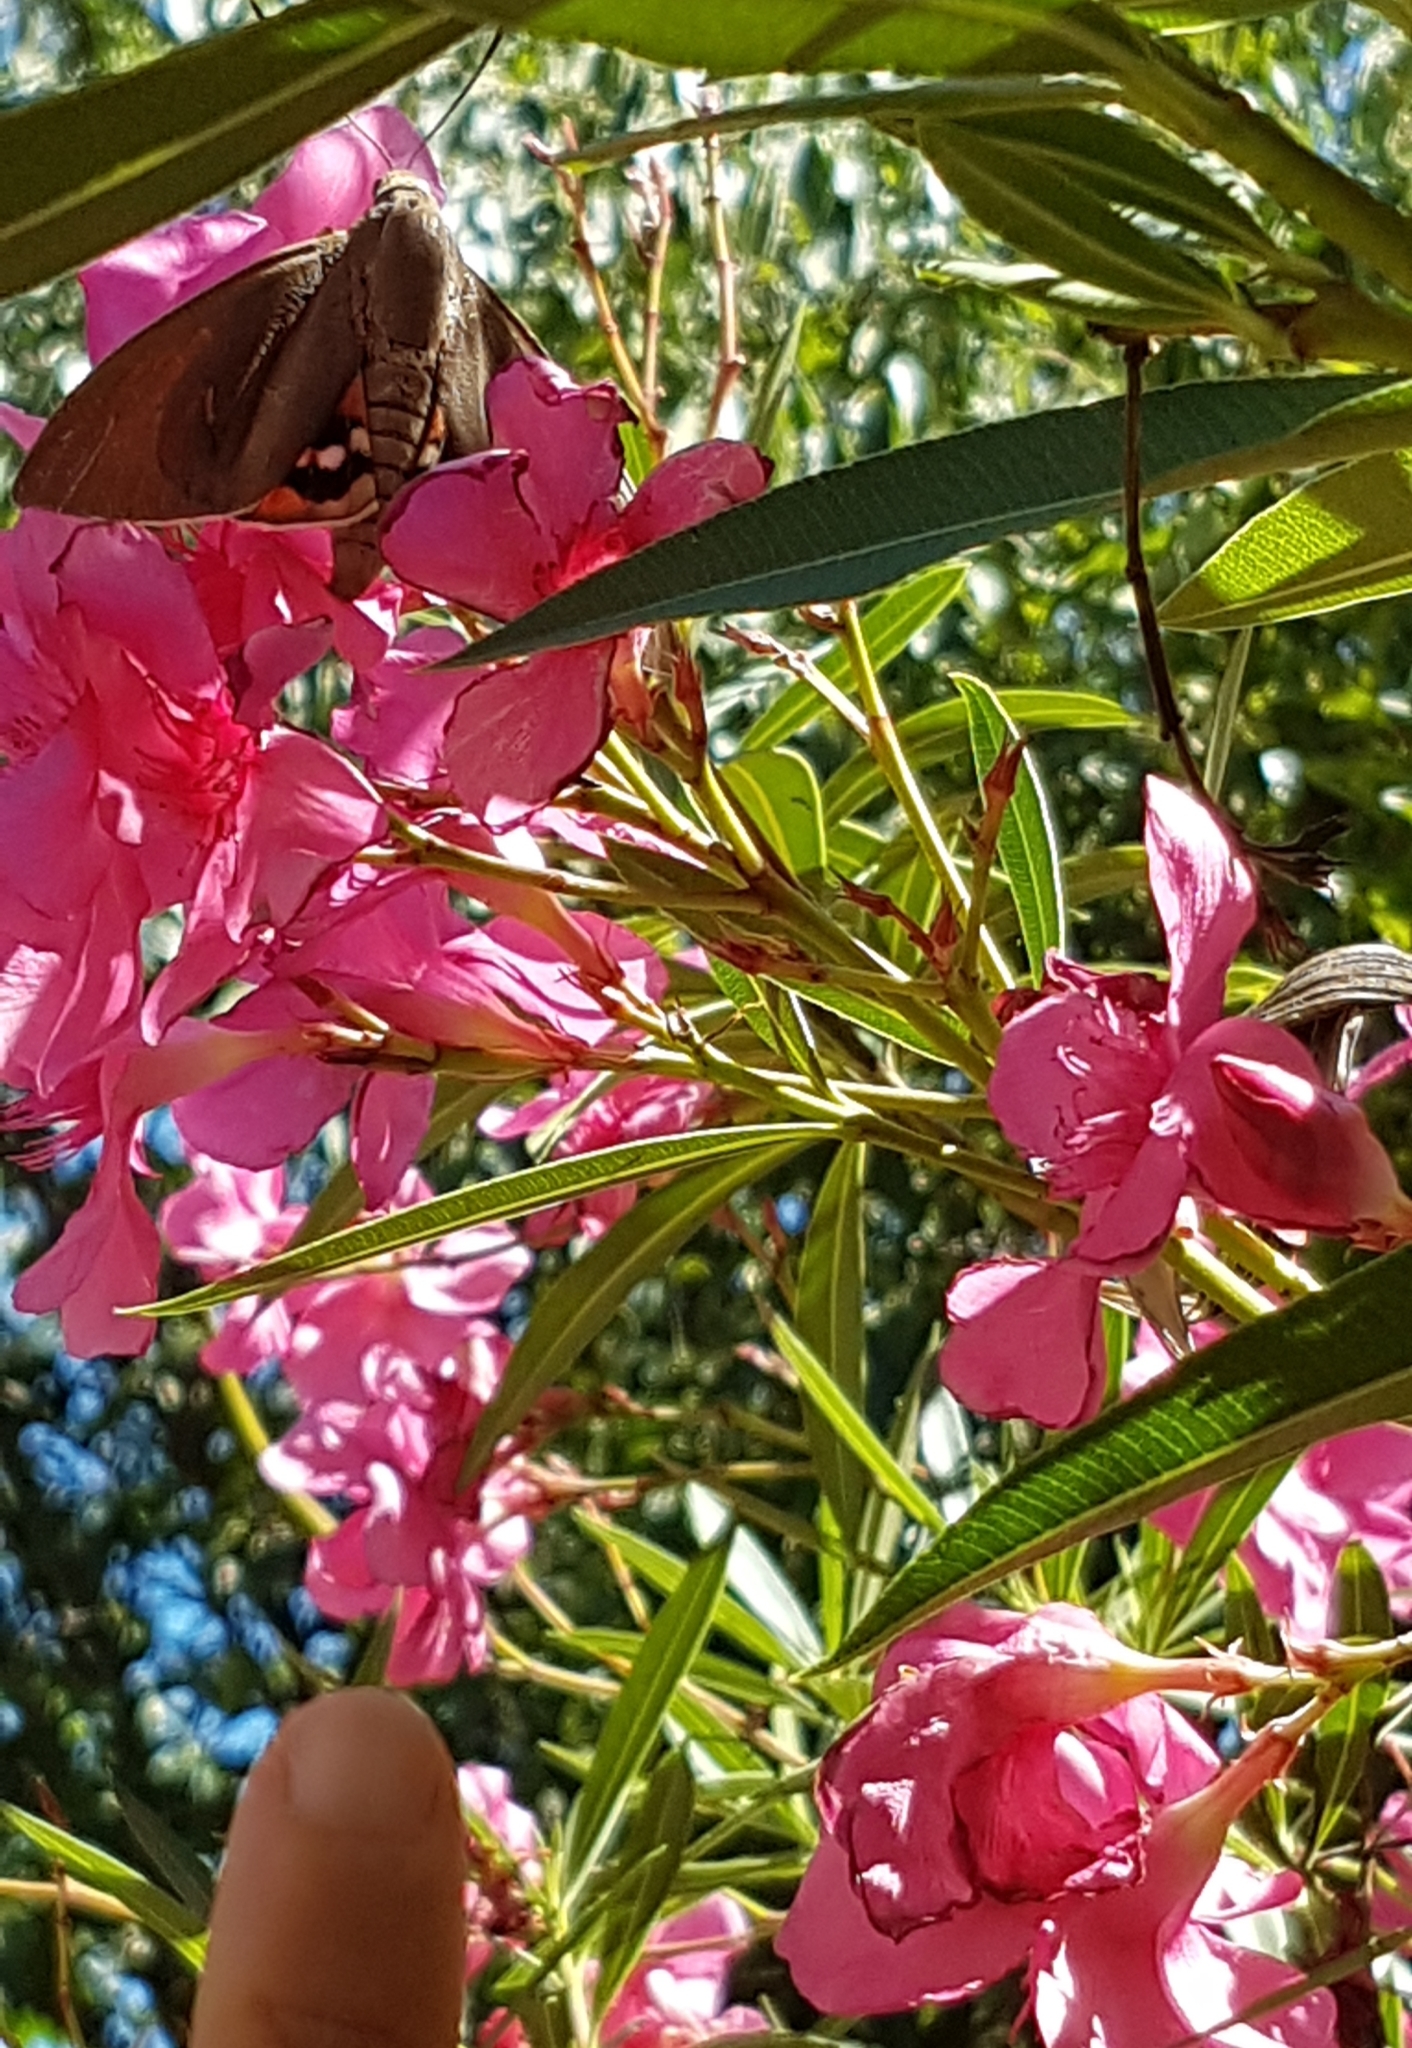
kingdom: Animalia
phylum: Arthropoda
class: Insecta
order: Lepidoptera
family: Castniidae
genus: Paysandisia
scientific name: Paysandisia archon
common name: Palm moth
